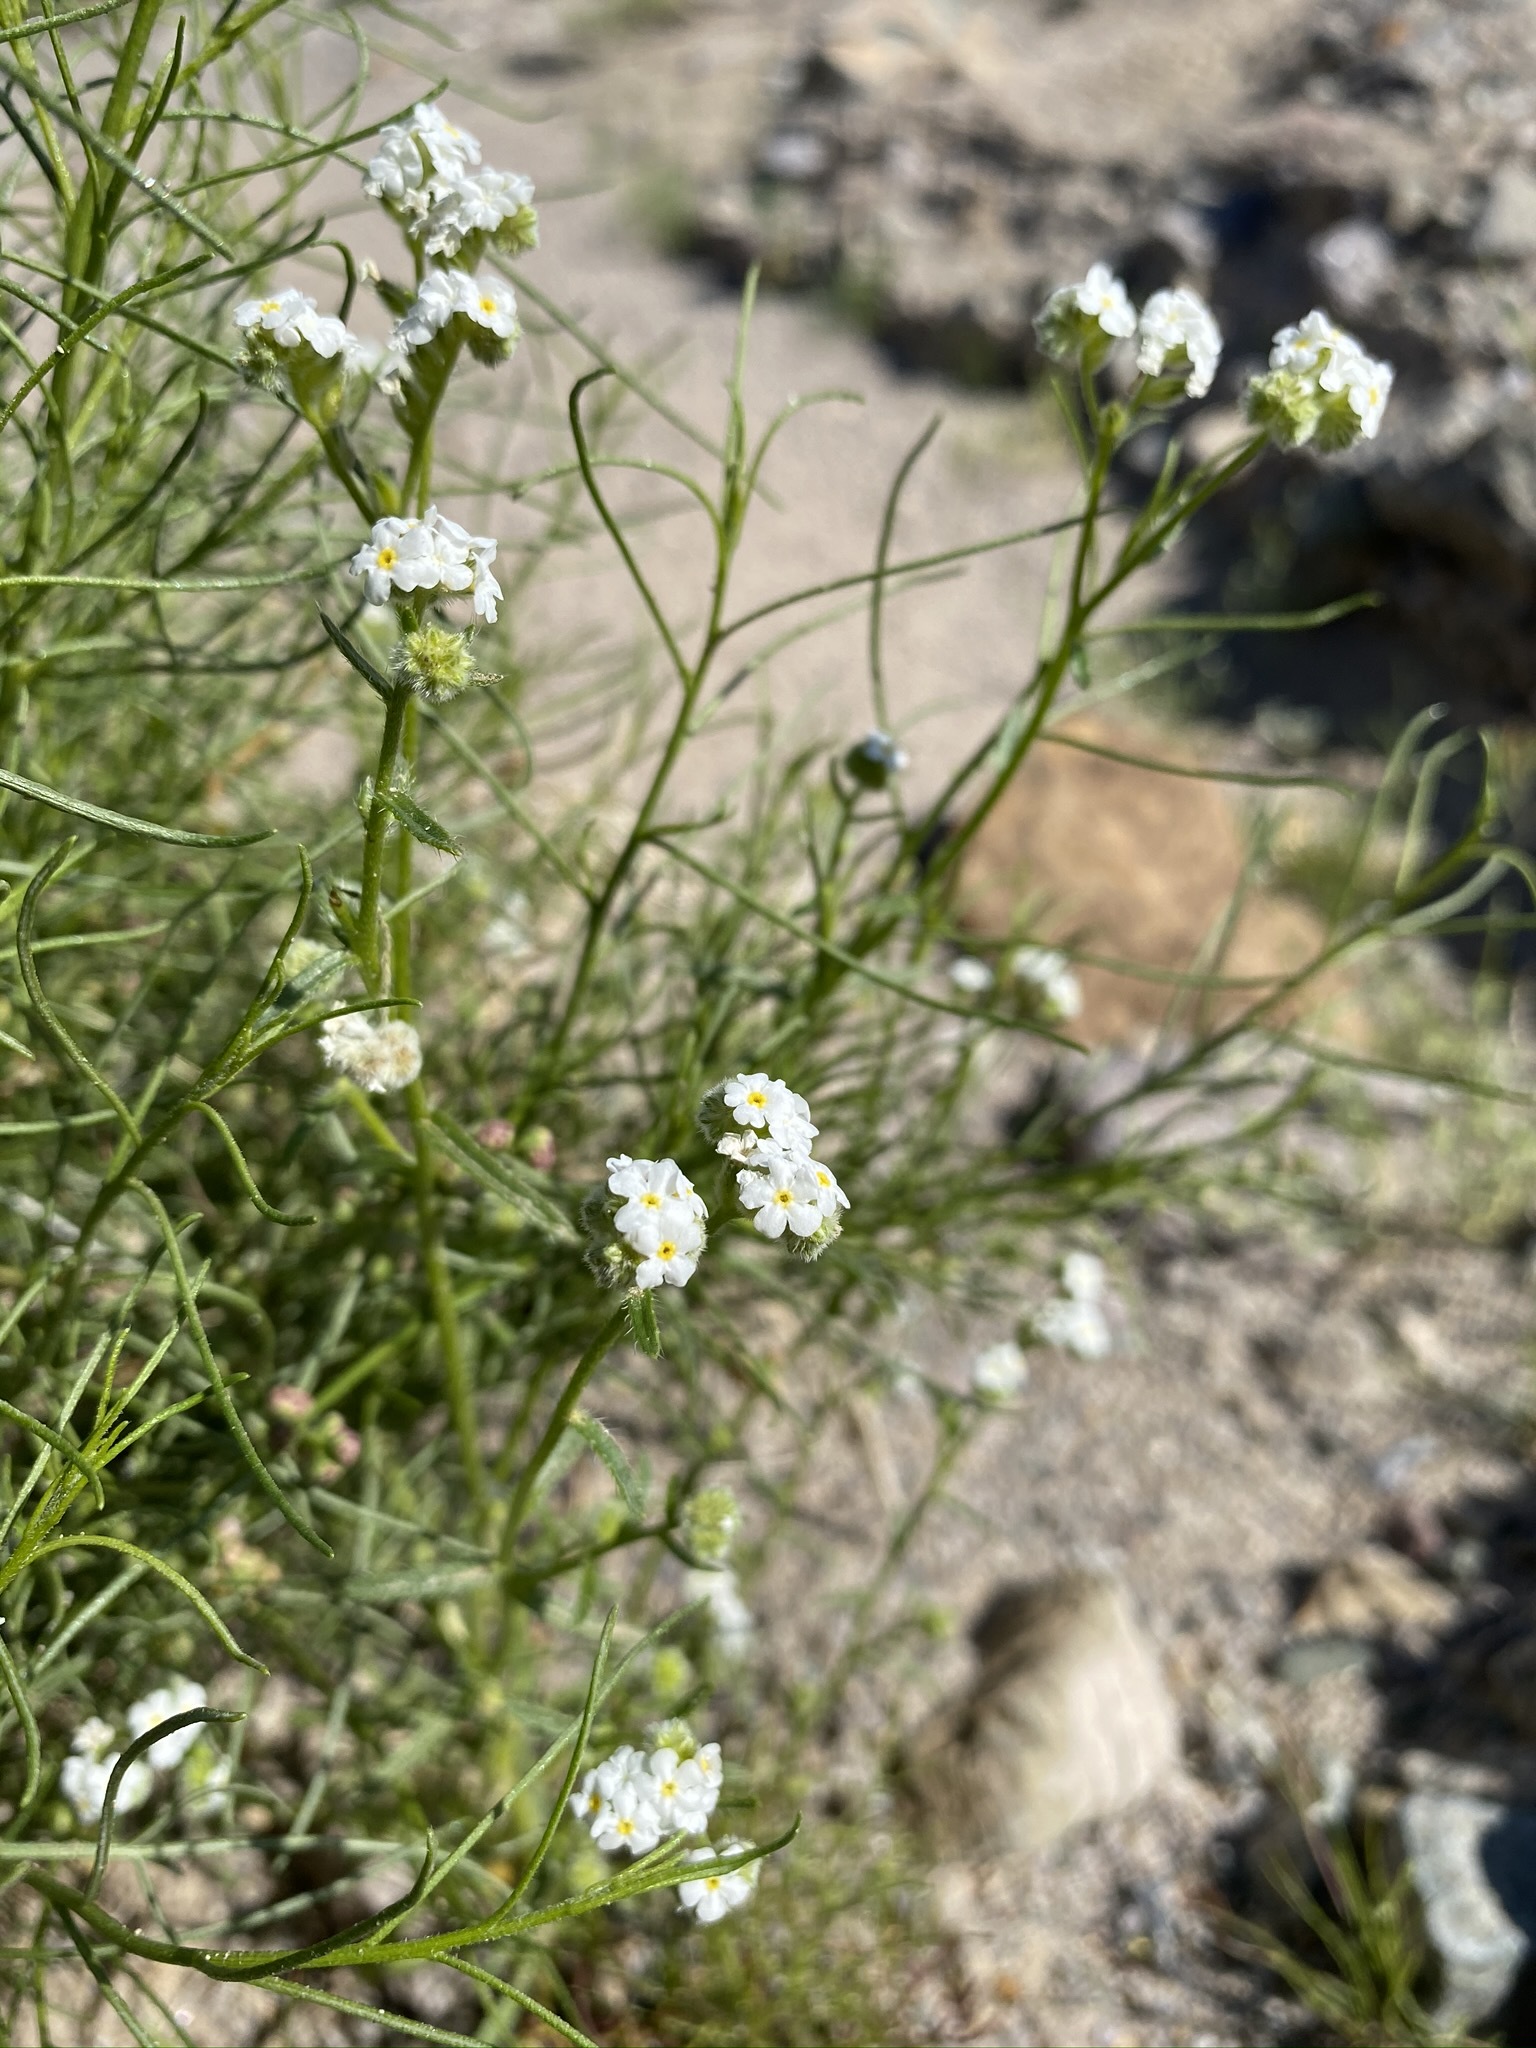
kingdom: Plantae
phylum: Tracheophyta
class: Magnoliopsida
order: Boraginales
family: Boraginaceae
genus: Cryptantha
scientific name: Cryptantha utahensis
